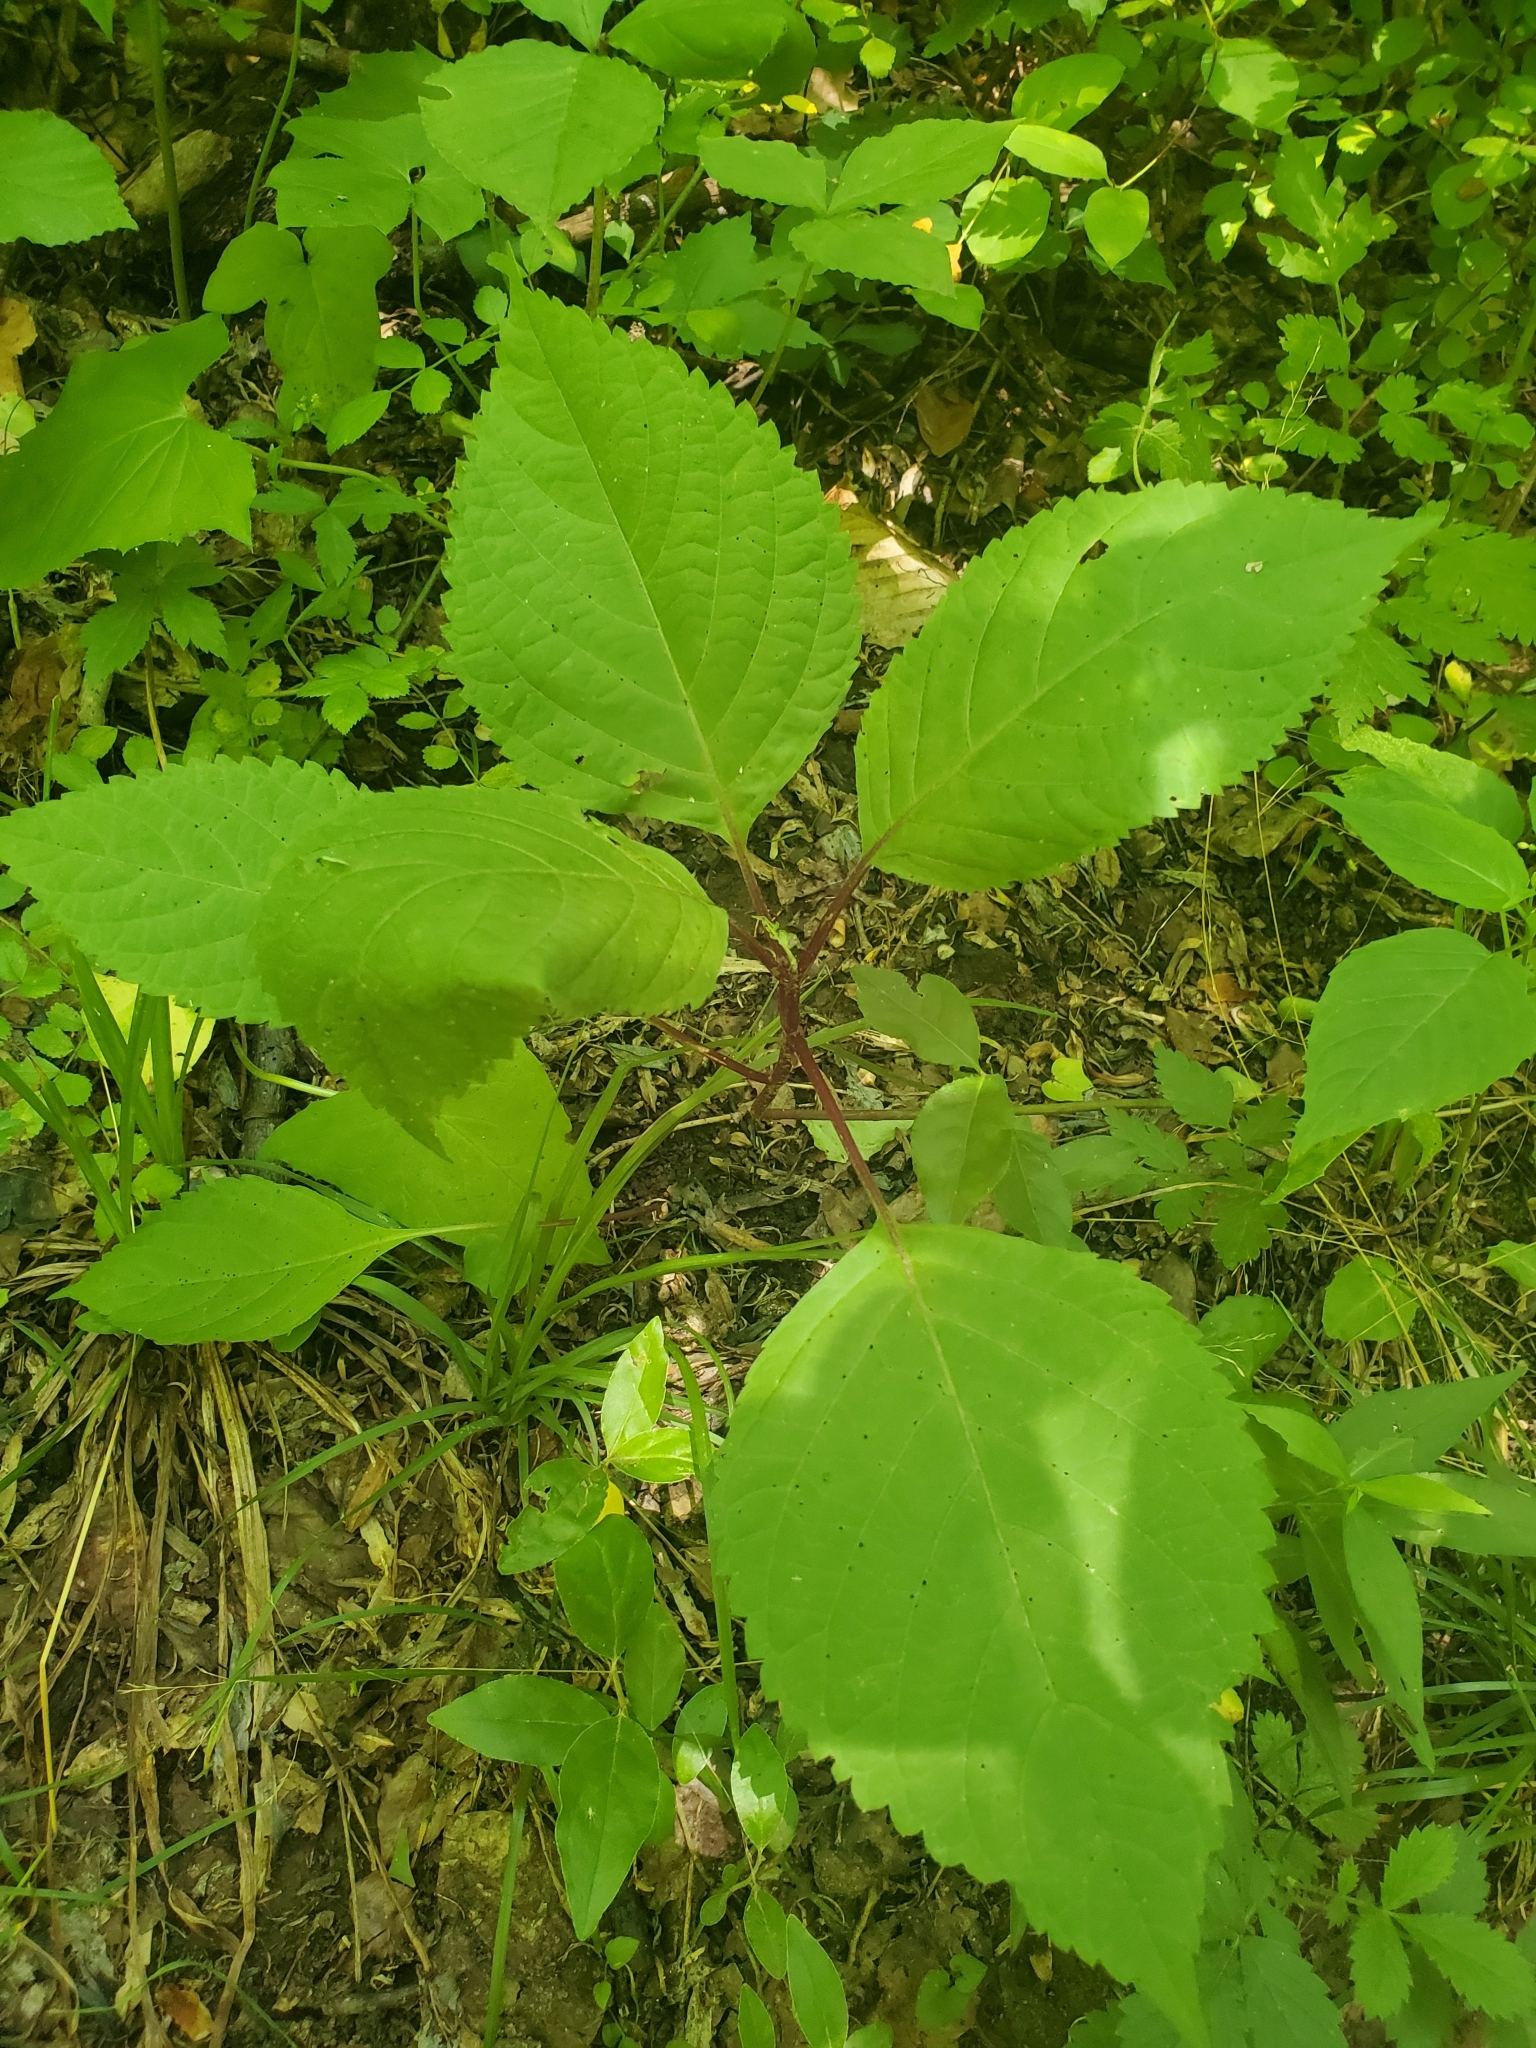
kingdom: Plantae
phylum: Tracheophyta
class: Magnoliopsida
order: Lamiales
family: Lamiaceae
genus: Collinsonia
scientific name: Collinsonia canadensis
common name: Northern horsebalm
